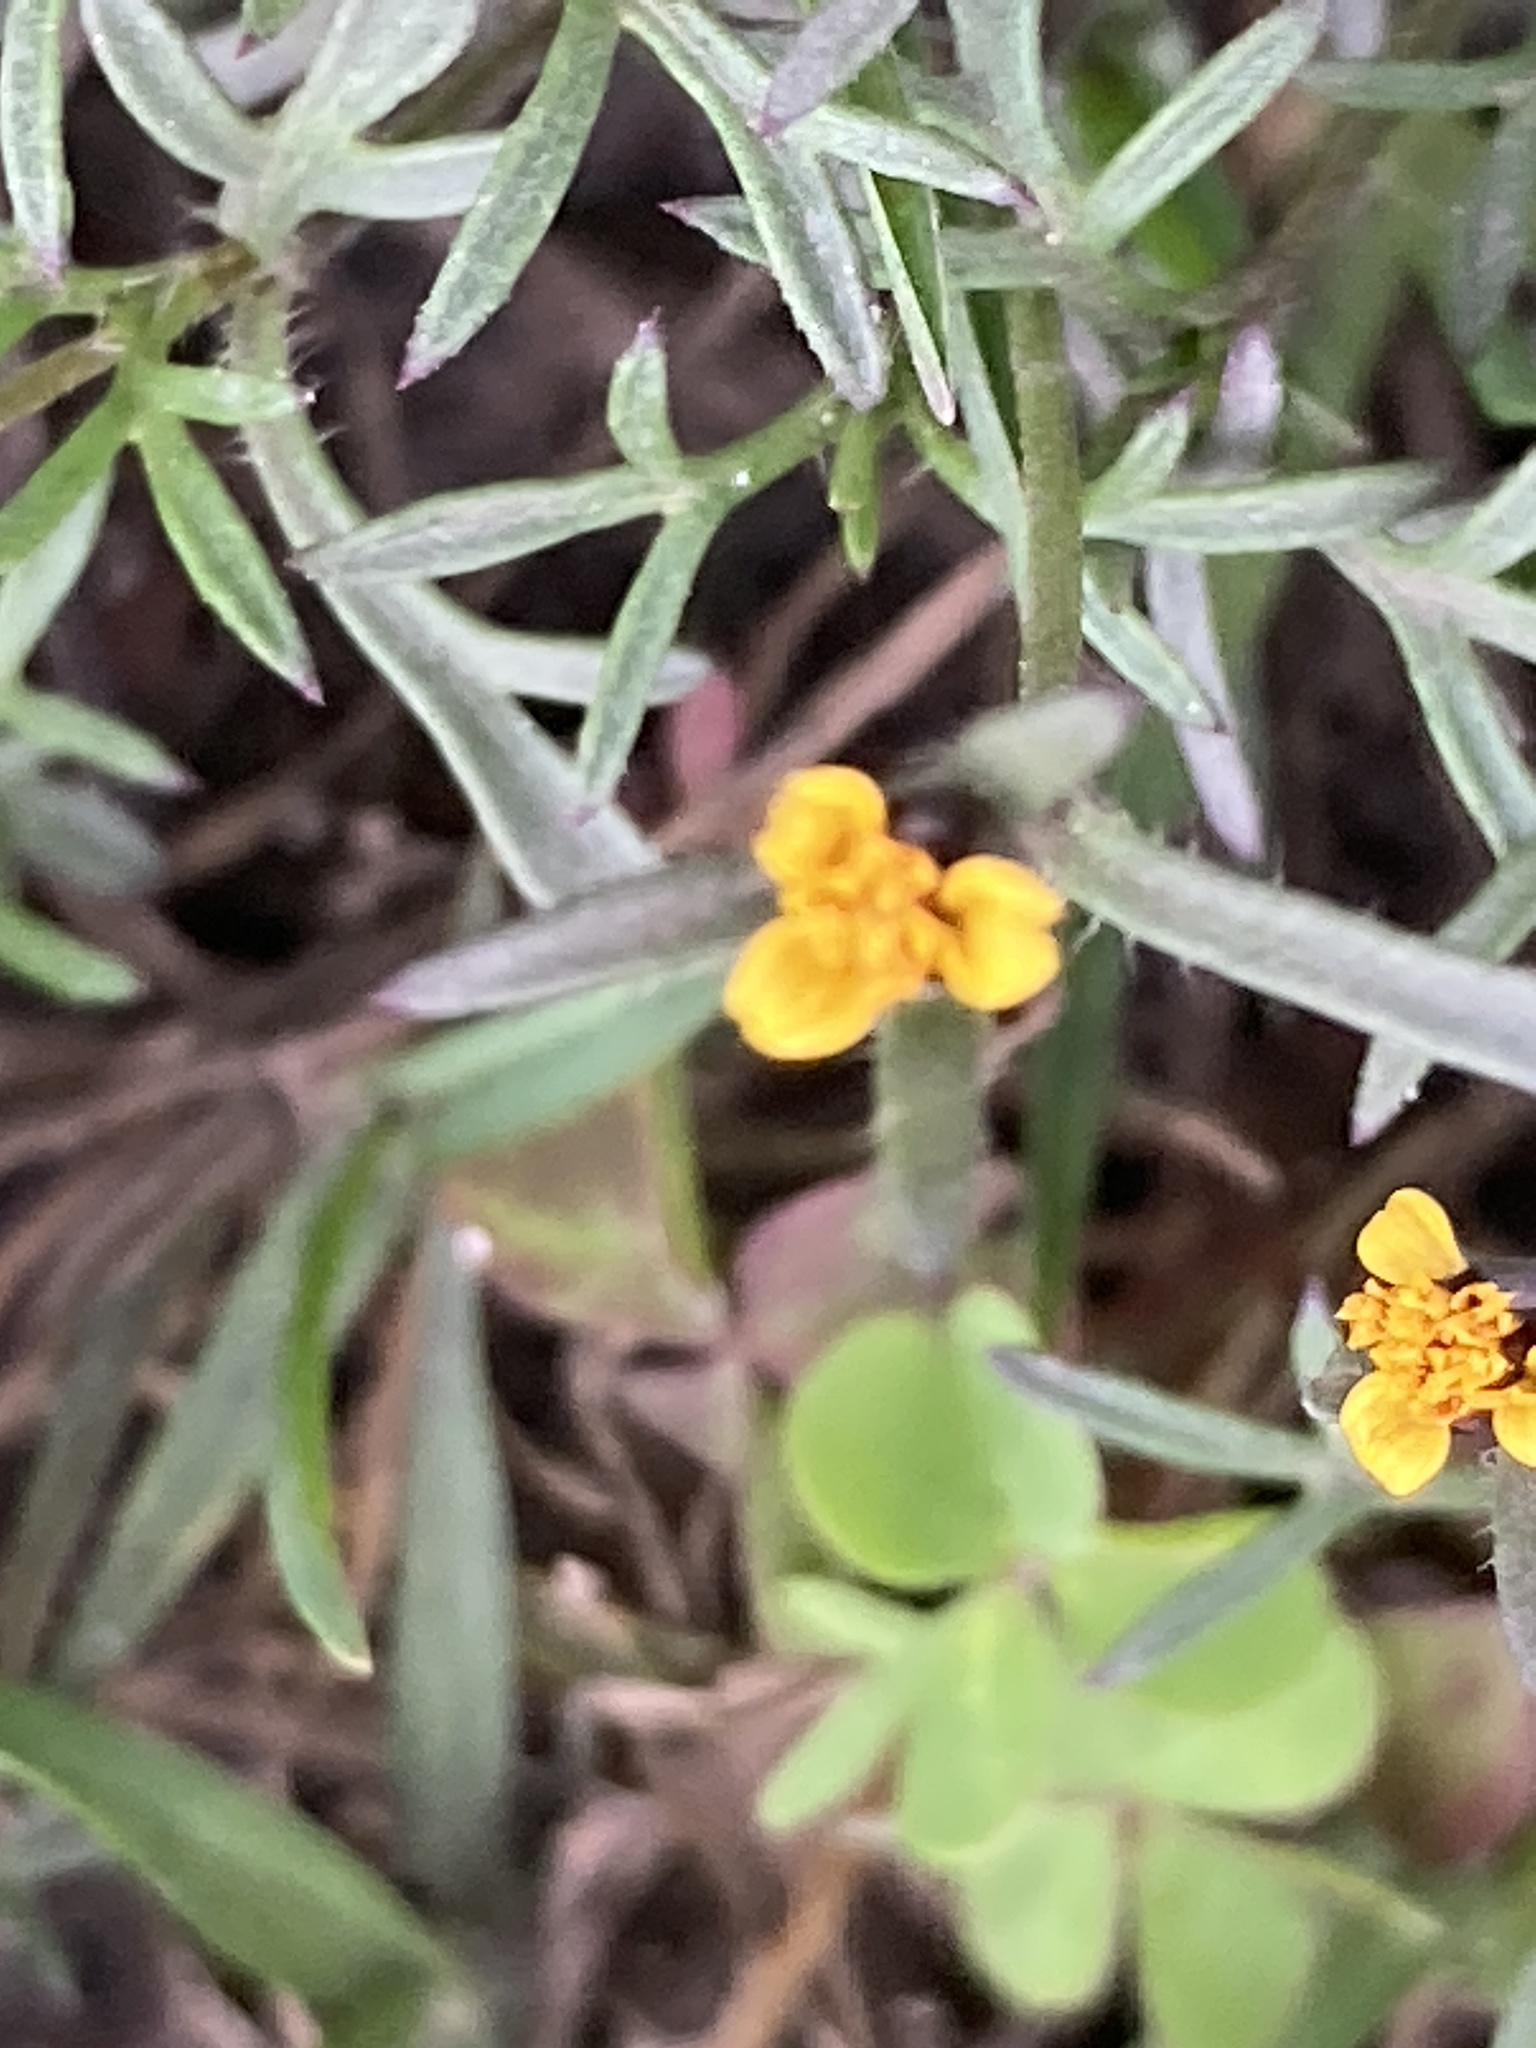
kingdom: Plantae
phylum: Tracheophyta
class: Magnoliopsida
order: Asterales
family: Asteraceae
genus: Heterosperma
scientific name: Heterosperma achaetum
